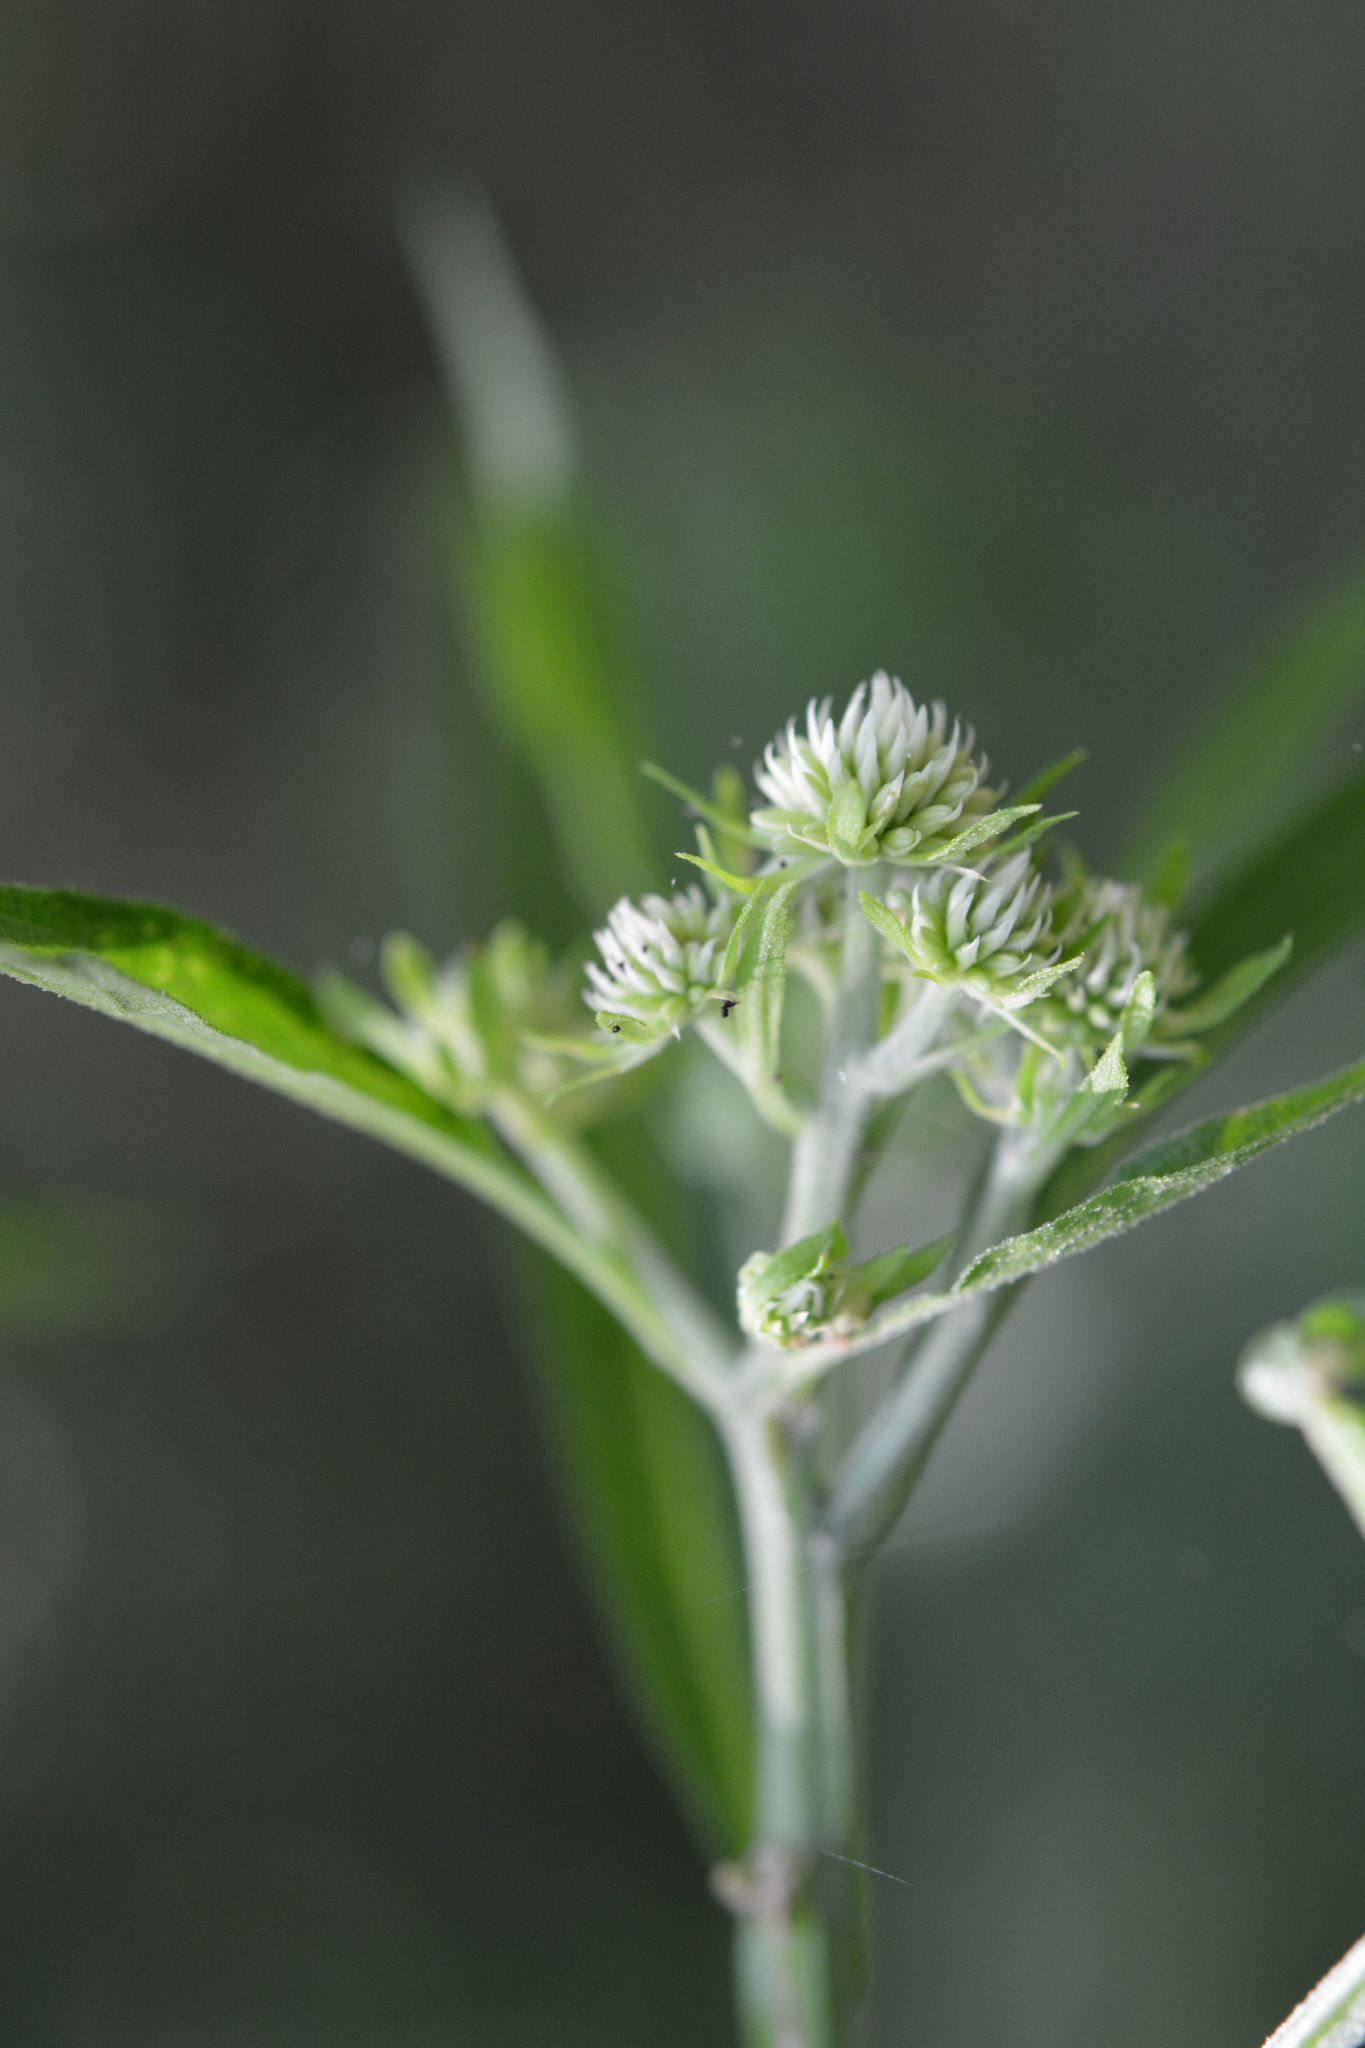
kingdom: Plantae
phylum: Tracheophyta
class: Magnoliopsida
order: Asterales
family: Asteraceae
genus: Verbesina
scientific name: Verbesina walteri
